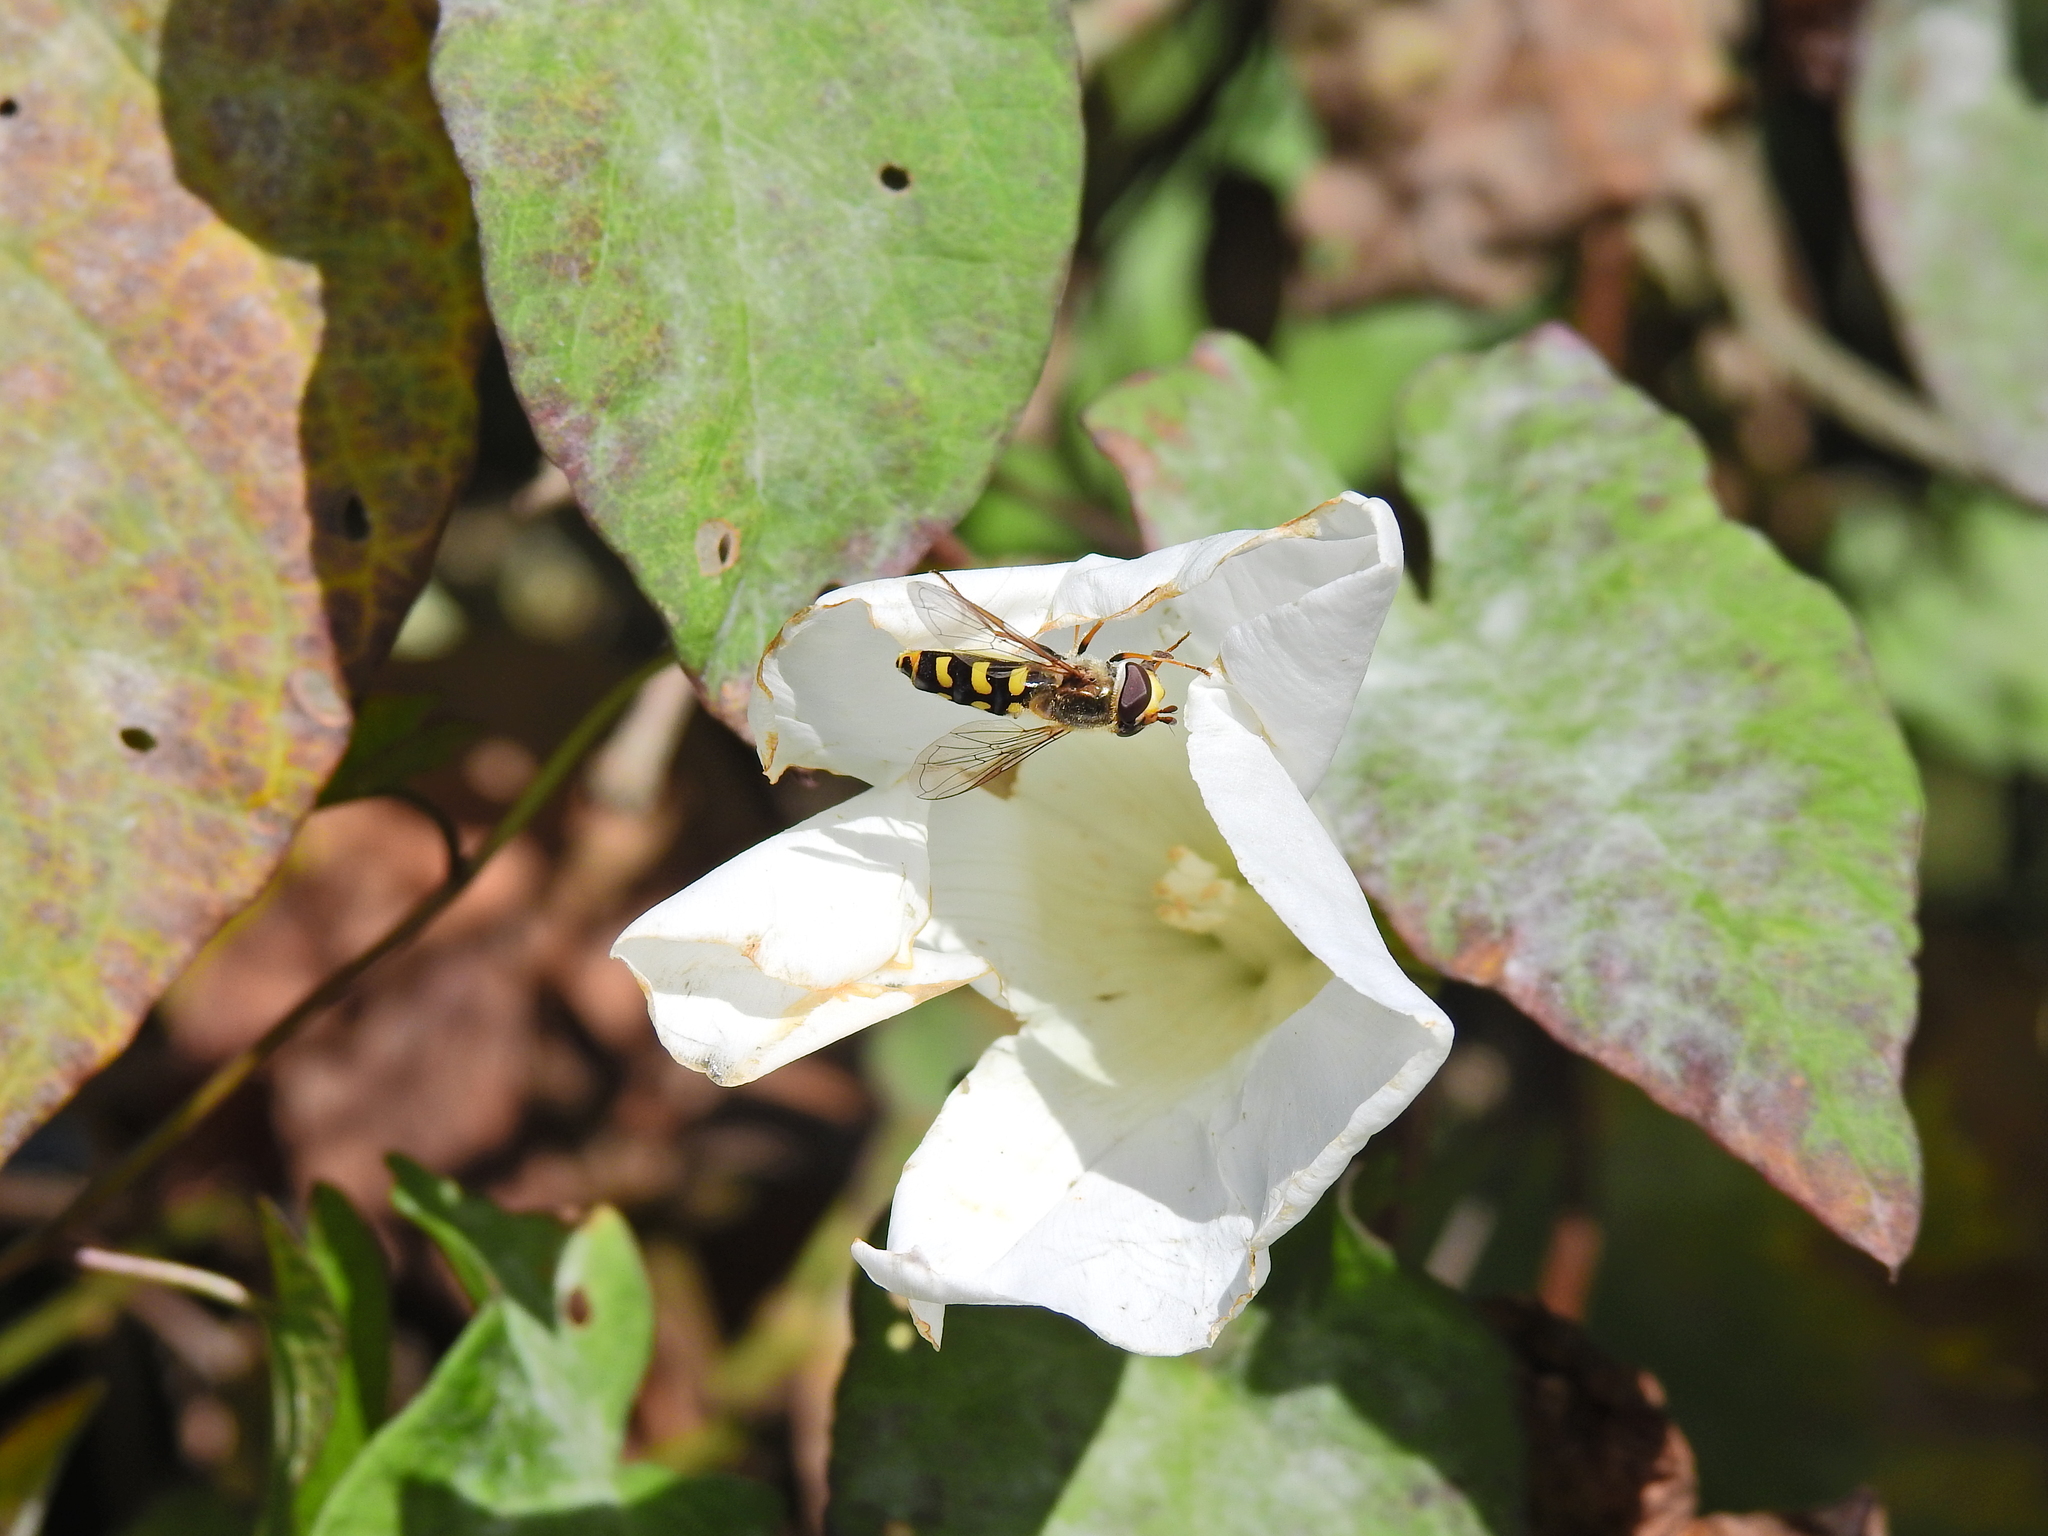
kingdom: Animalia
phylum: Arthropoda
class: Insecta
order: Diptera
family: Syrphidae
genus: Eupeodes
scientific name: Eupeodes luniger
